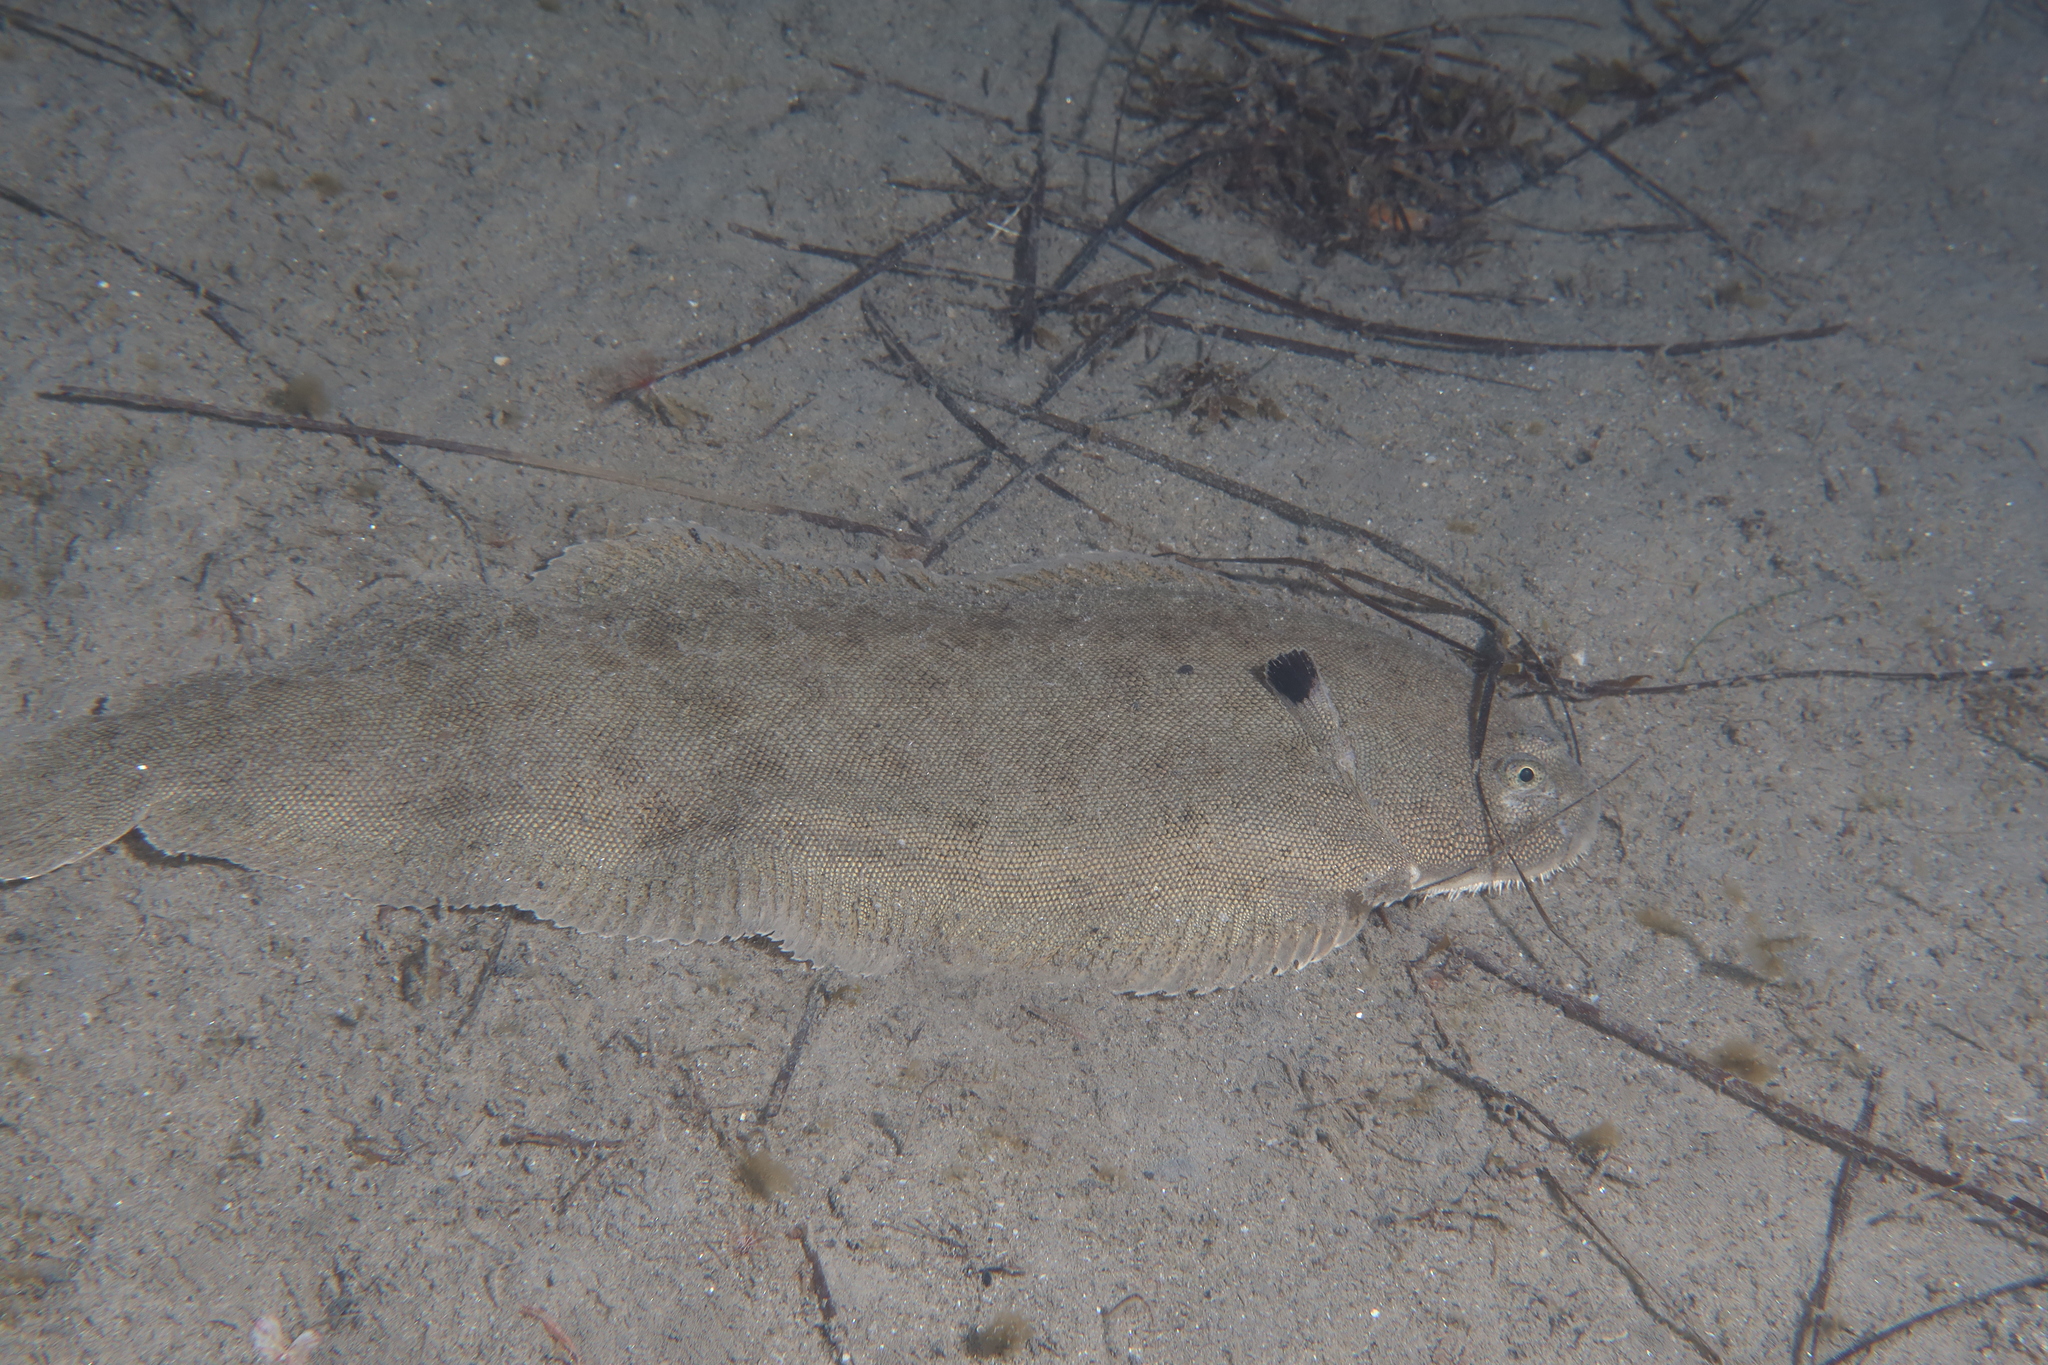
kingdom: Animalia
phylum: Chordata
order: Pleuronectiformes
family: Soleidae
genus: Solea
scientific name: Solea solea
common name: Sole
